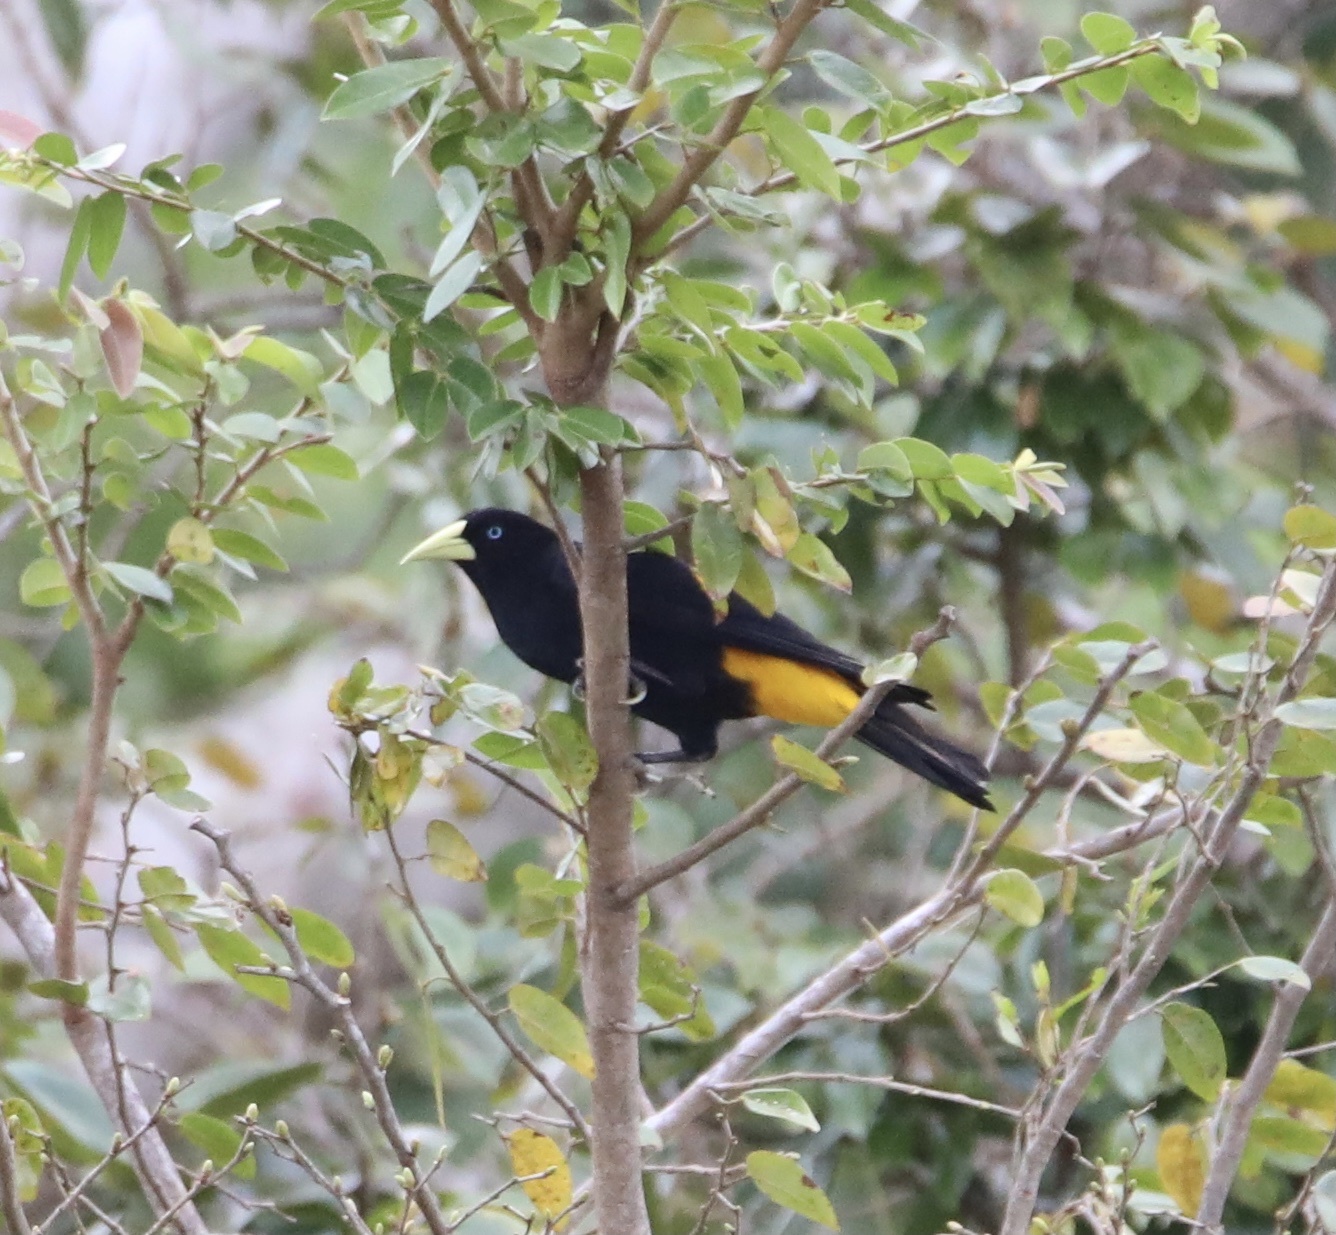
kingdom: Animalia
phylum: Chordata
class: Aves
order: Passeriformes
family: Icteridae
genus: Cacicus
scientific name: Cacicus cela
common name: Yellow-rumped cacique
